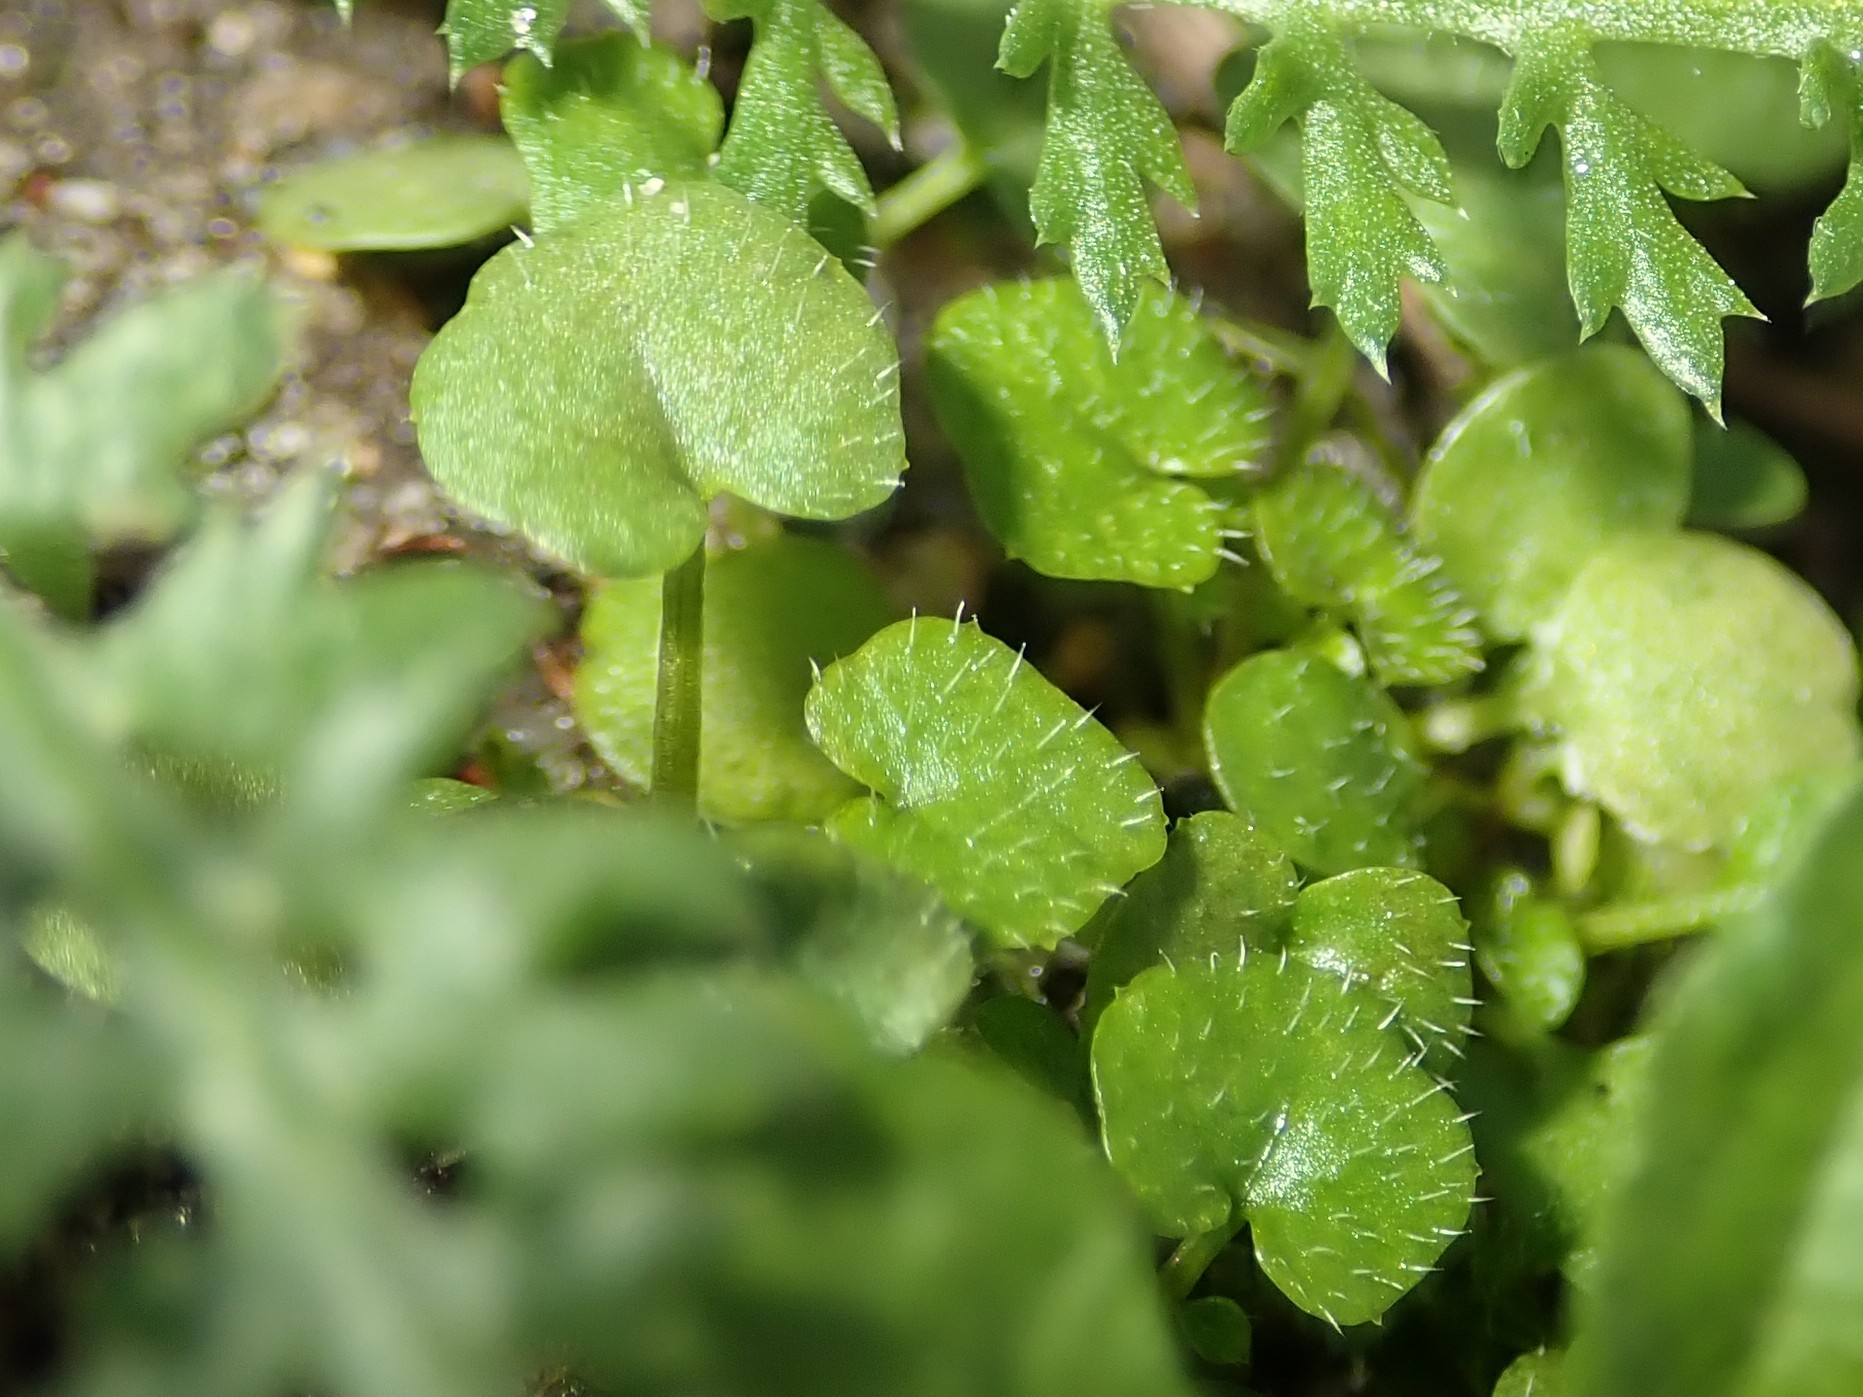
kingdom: Plantae
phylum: Tracheophyta
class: Magnoliopsida
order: Brassicales
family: Brassicaceae
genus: Cardamine
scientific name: Cardamine hirsuta
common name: Hairy bittercress
